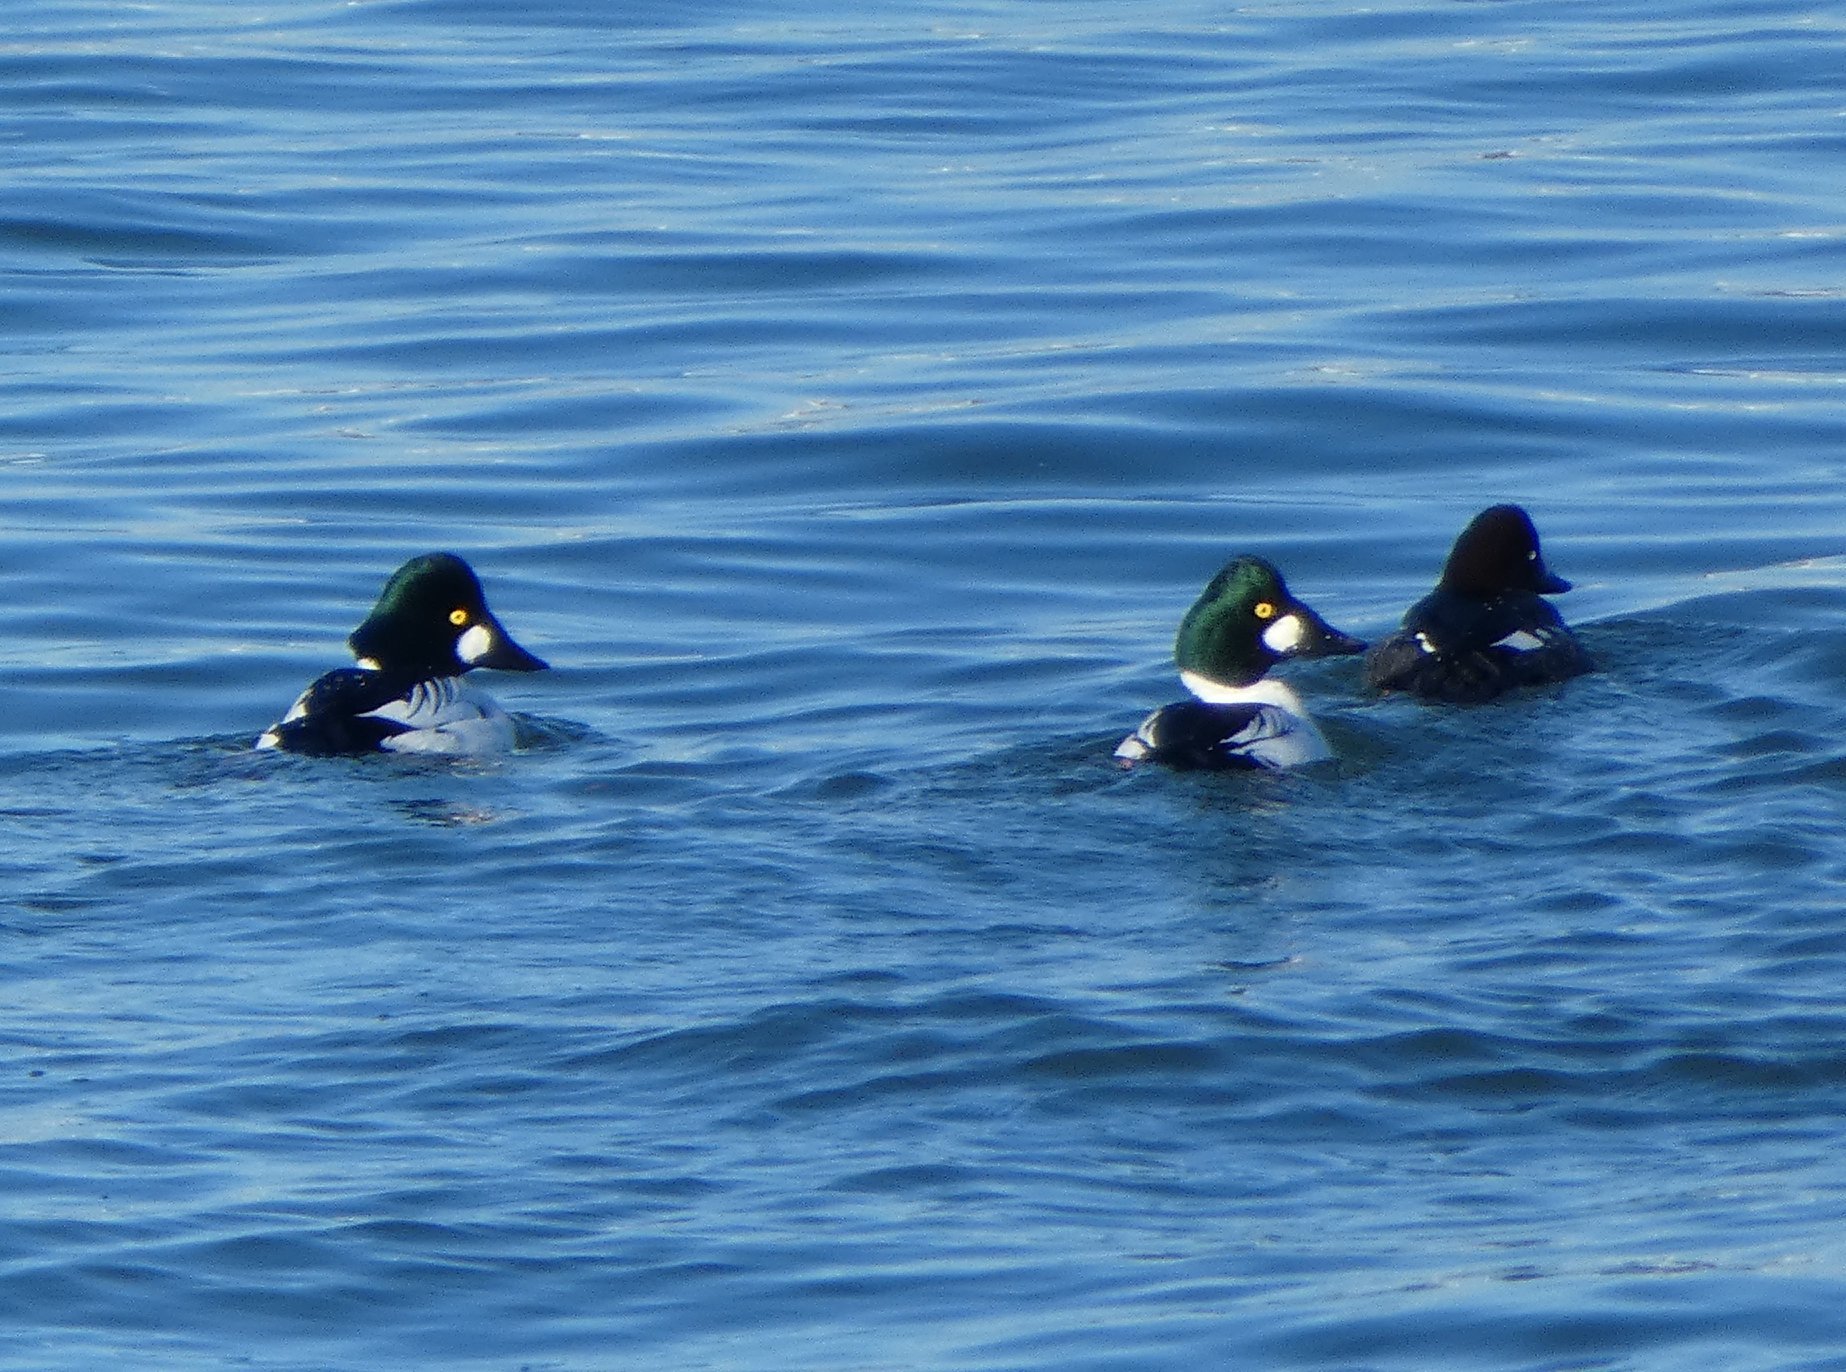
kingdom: Animalia
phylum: Chordata
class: Aves
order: Anseriformes
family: Anatidae
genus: Bucephala
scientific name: Bucephala clangula
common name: Common goldeneye
